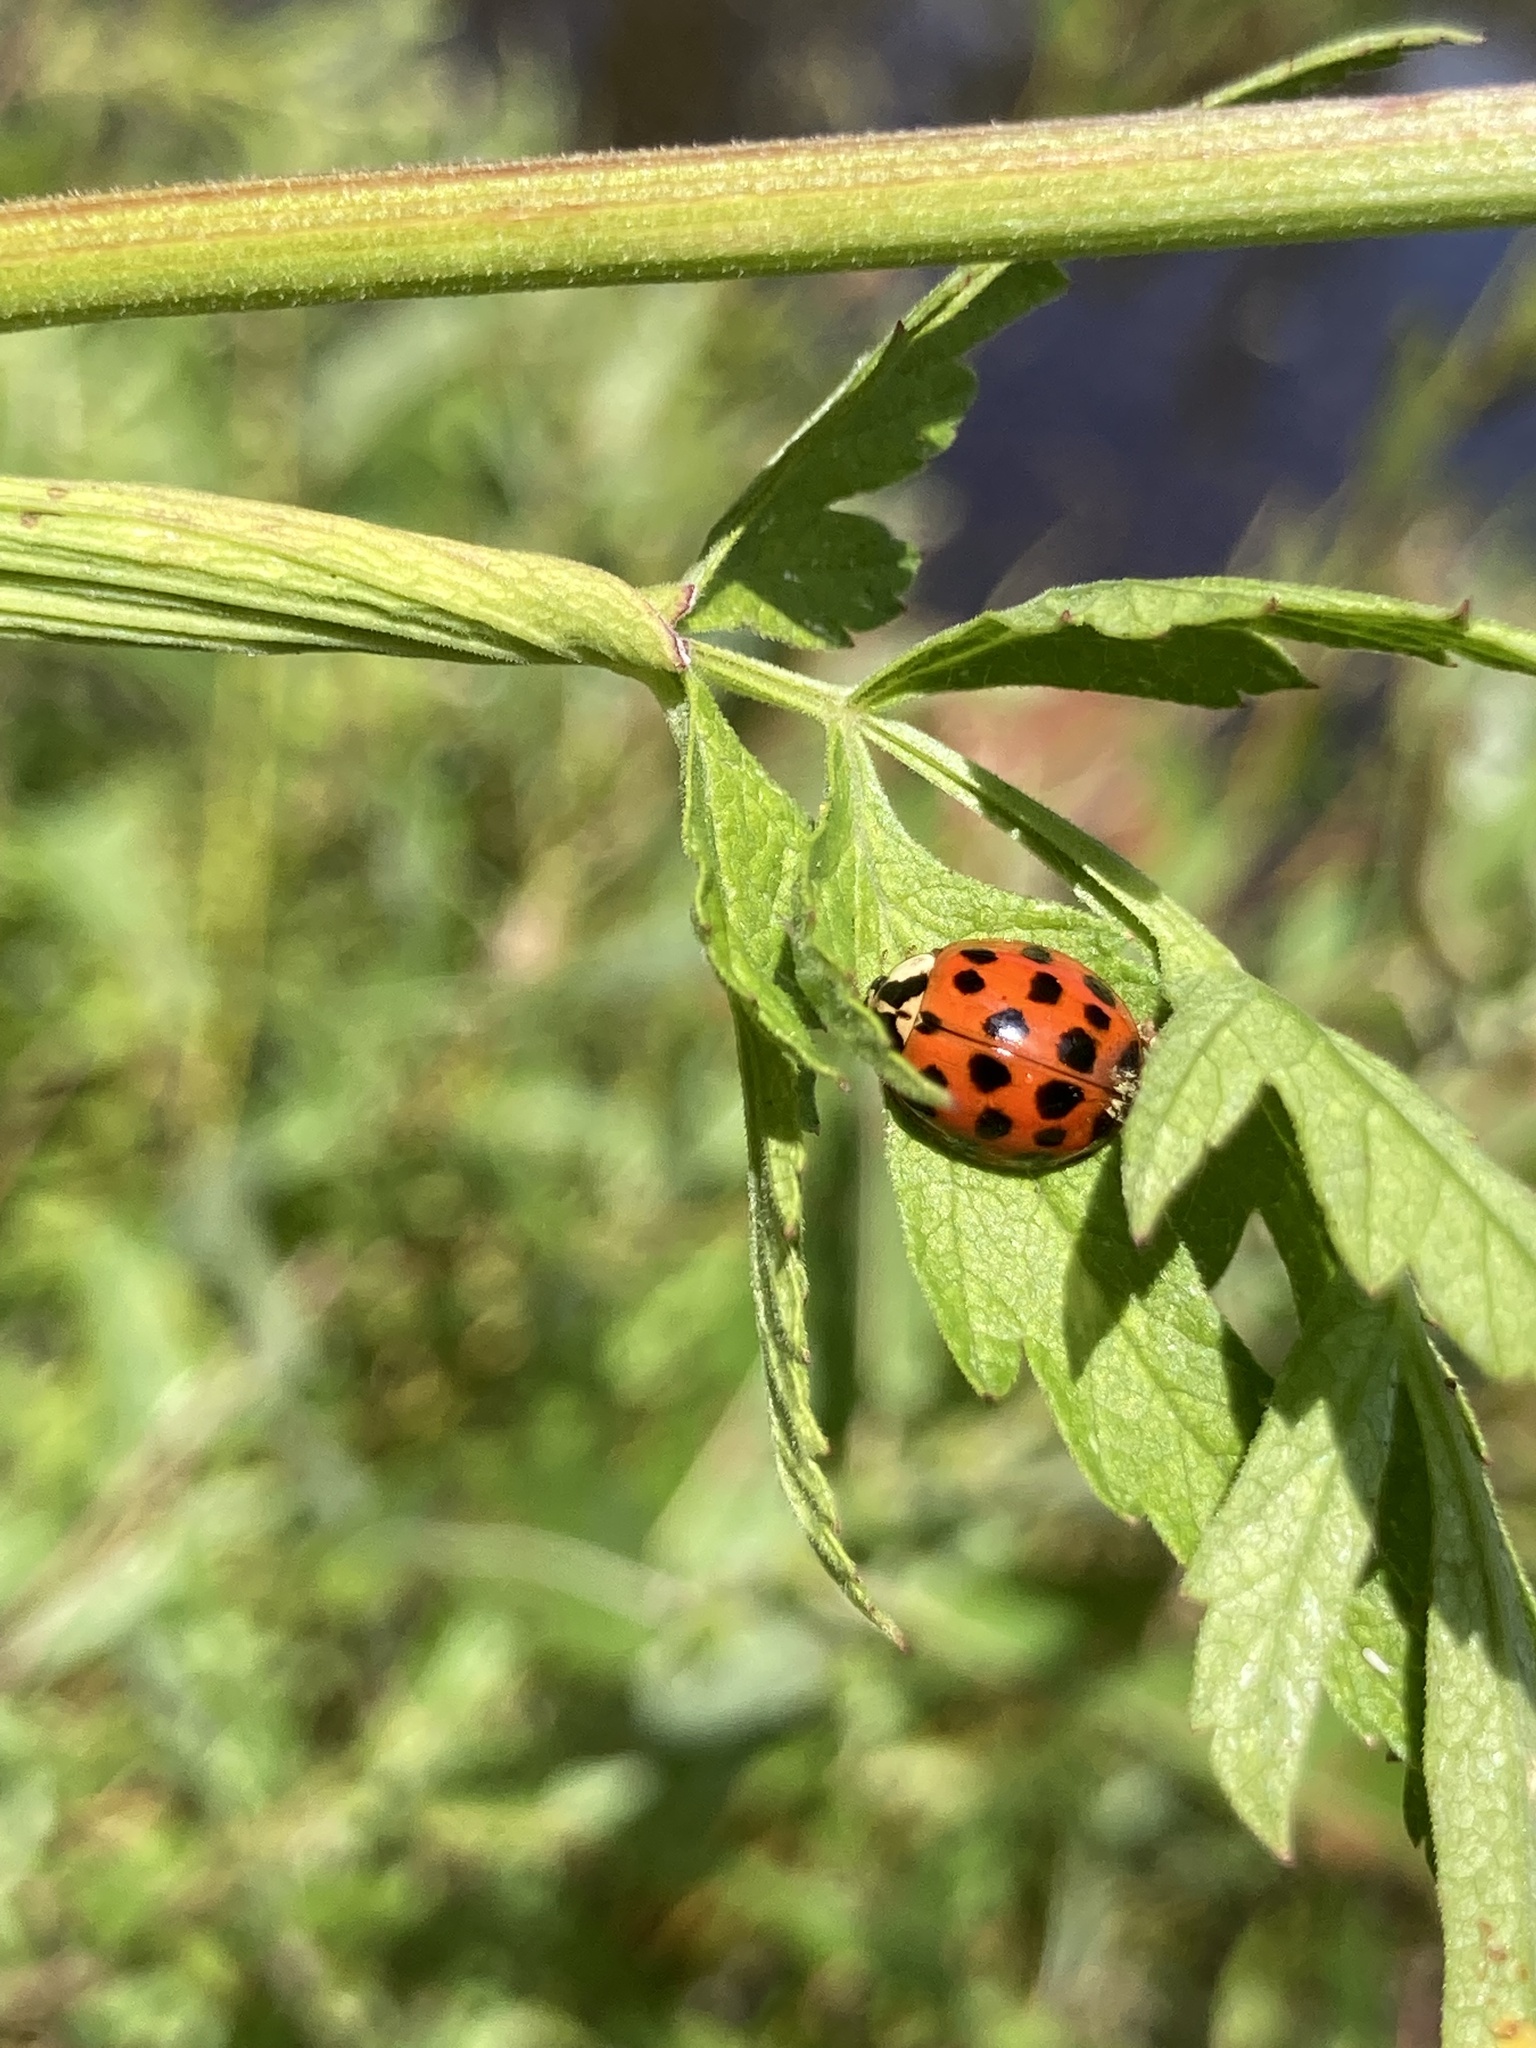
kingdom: Animalia
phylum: Arthropoda
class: Insecta
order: Coleoptera
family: Coccinellidae
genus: Harmonia
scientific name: Harmonia axyridis
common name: Harlequin ladybird
